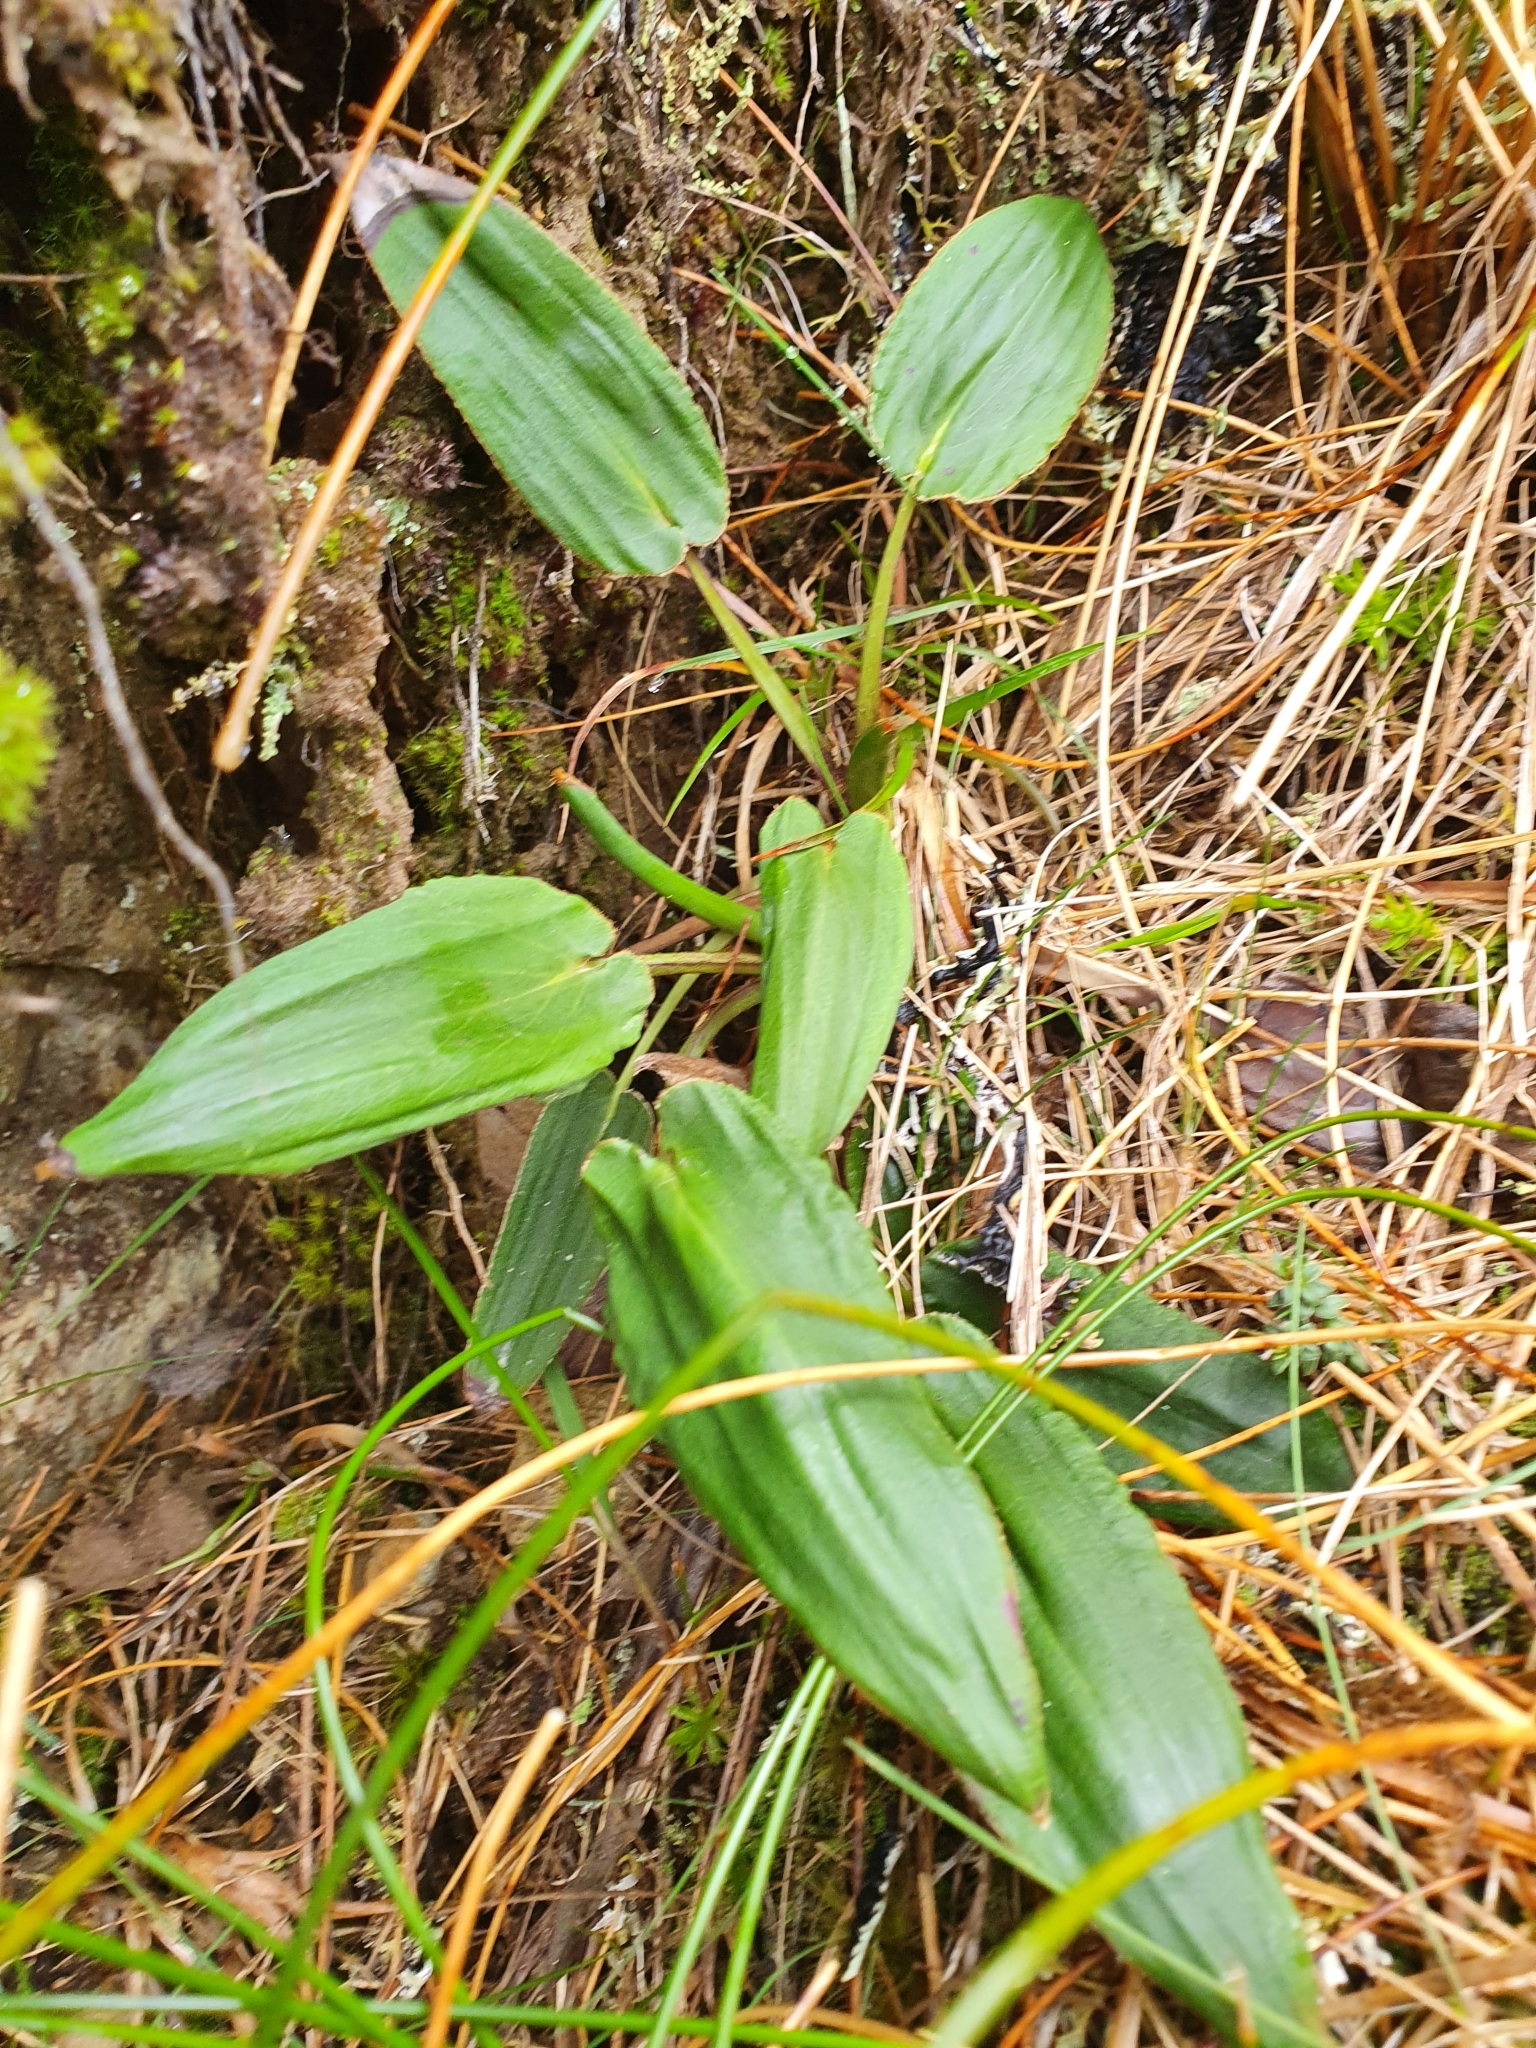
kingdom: Plantae
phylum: Tracheophyta
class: Magnoliopsida
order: Asterales
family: Asteraceae
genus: Celmisia
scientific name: Celmisia cordatifolia
